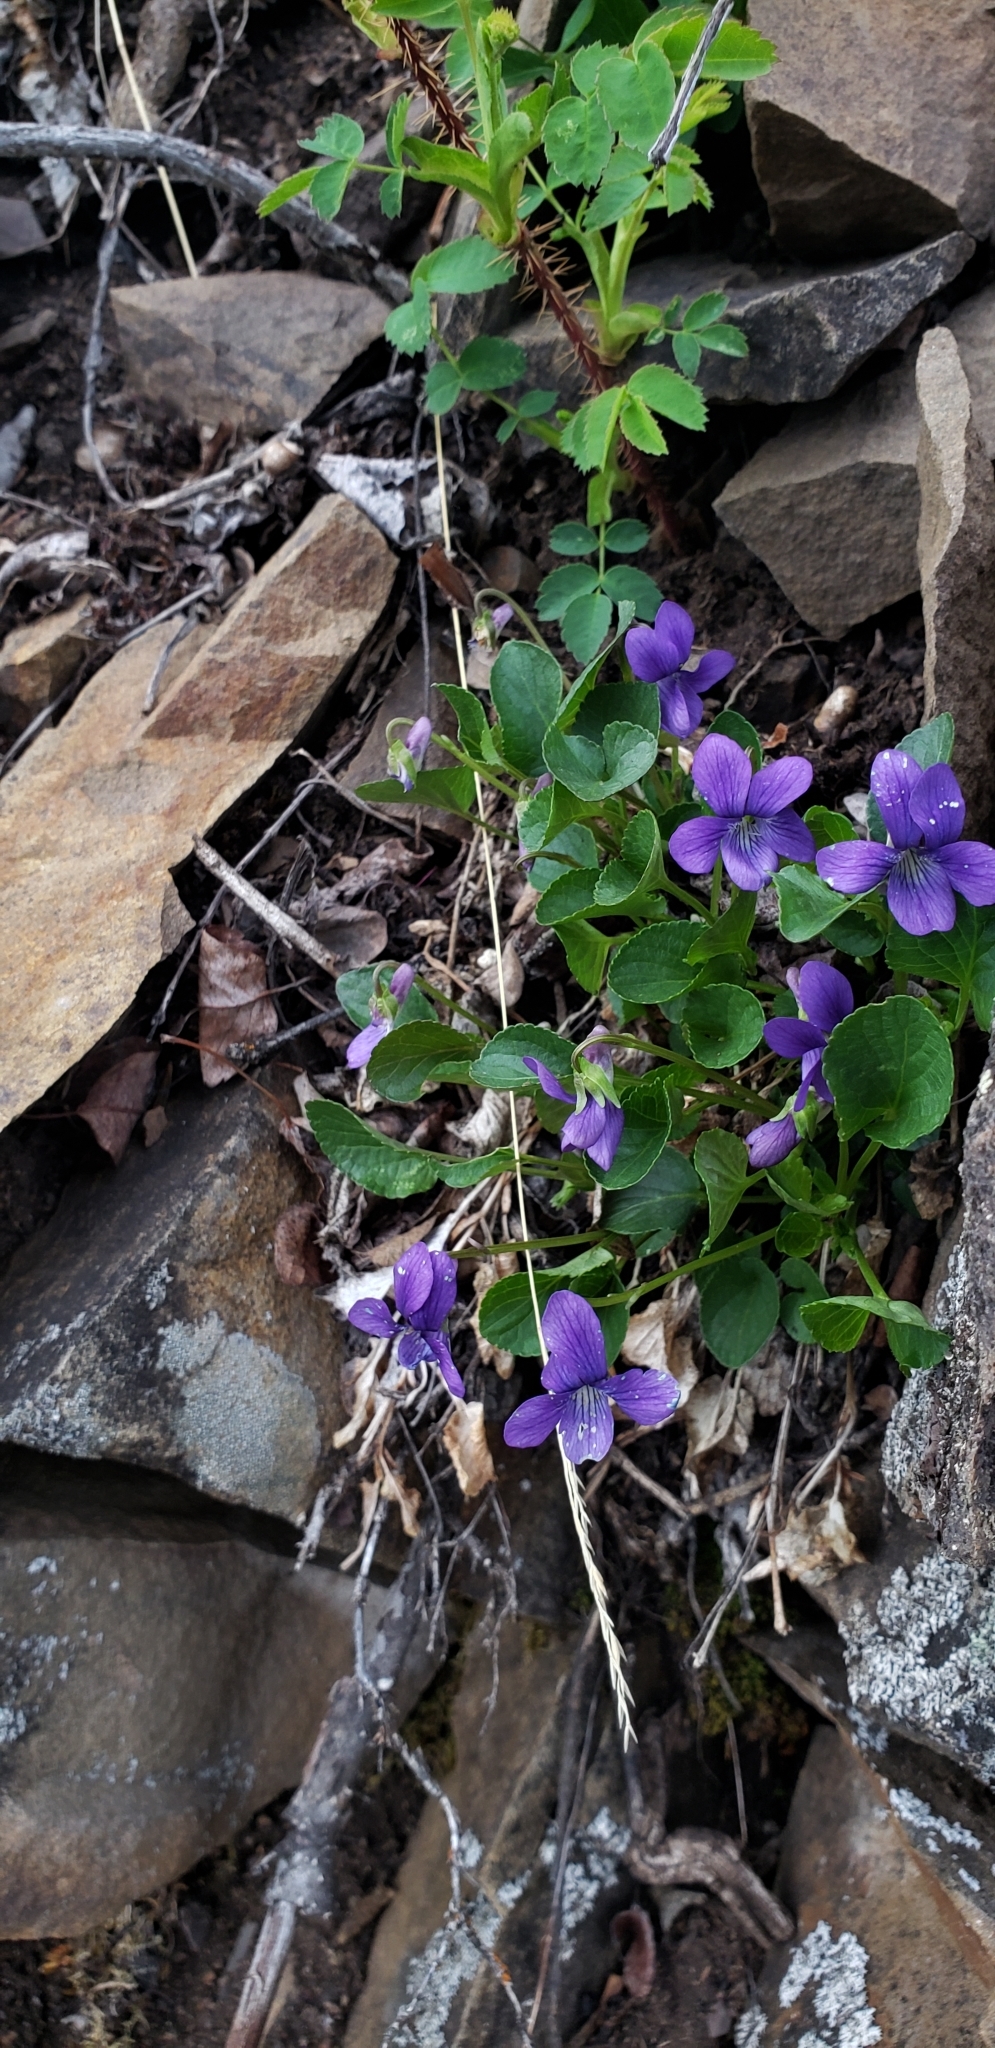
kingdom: Plantae
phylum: Tracheophyta
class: Magnoliopsida
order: Malpighiales
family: Violaceae
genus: Viola
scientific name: Viola adunca
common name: Sand violet
